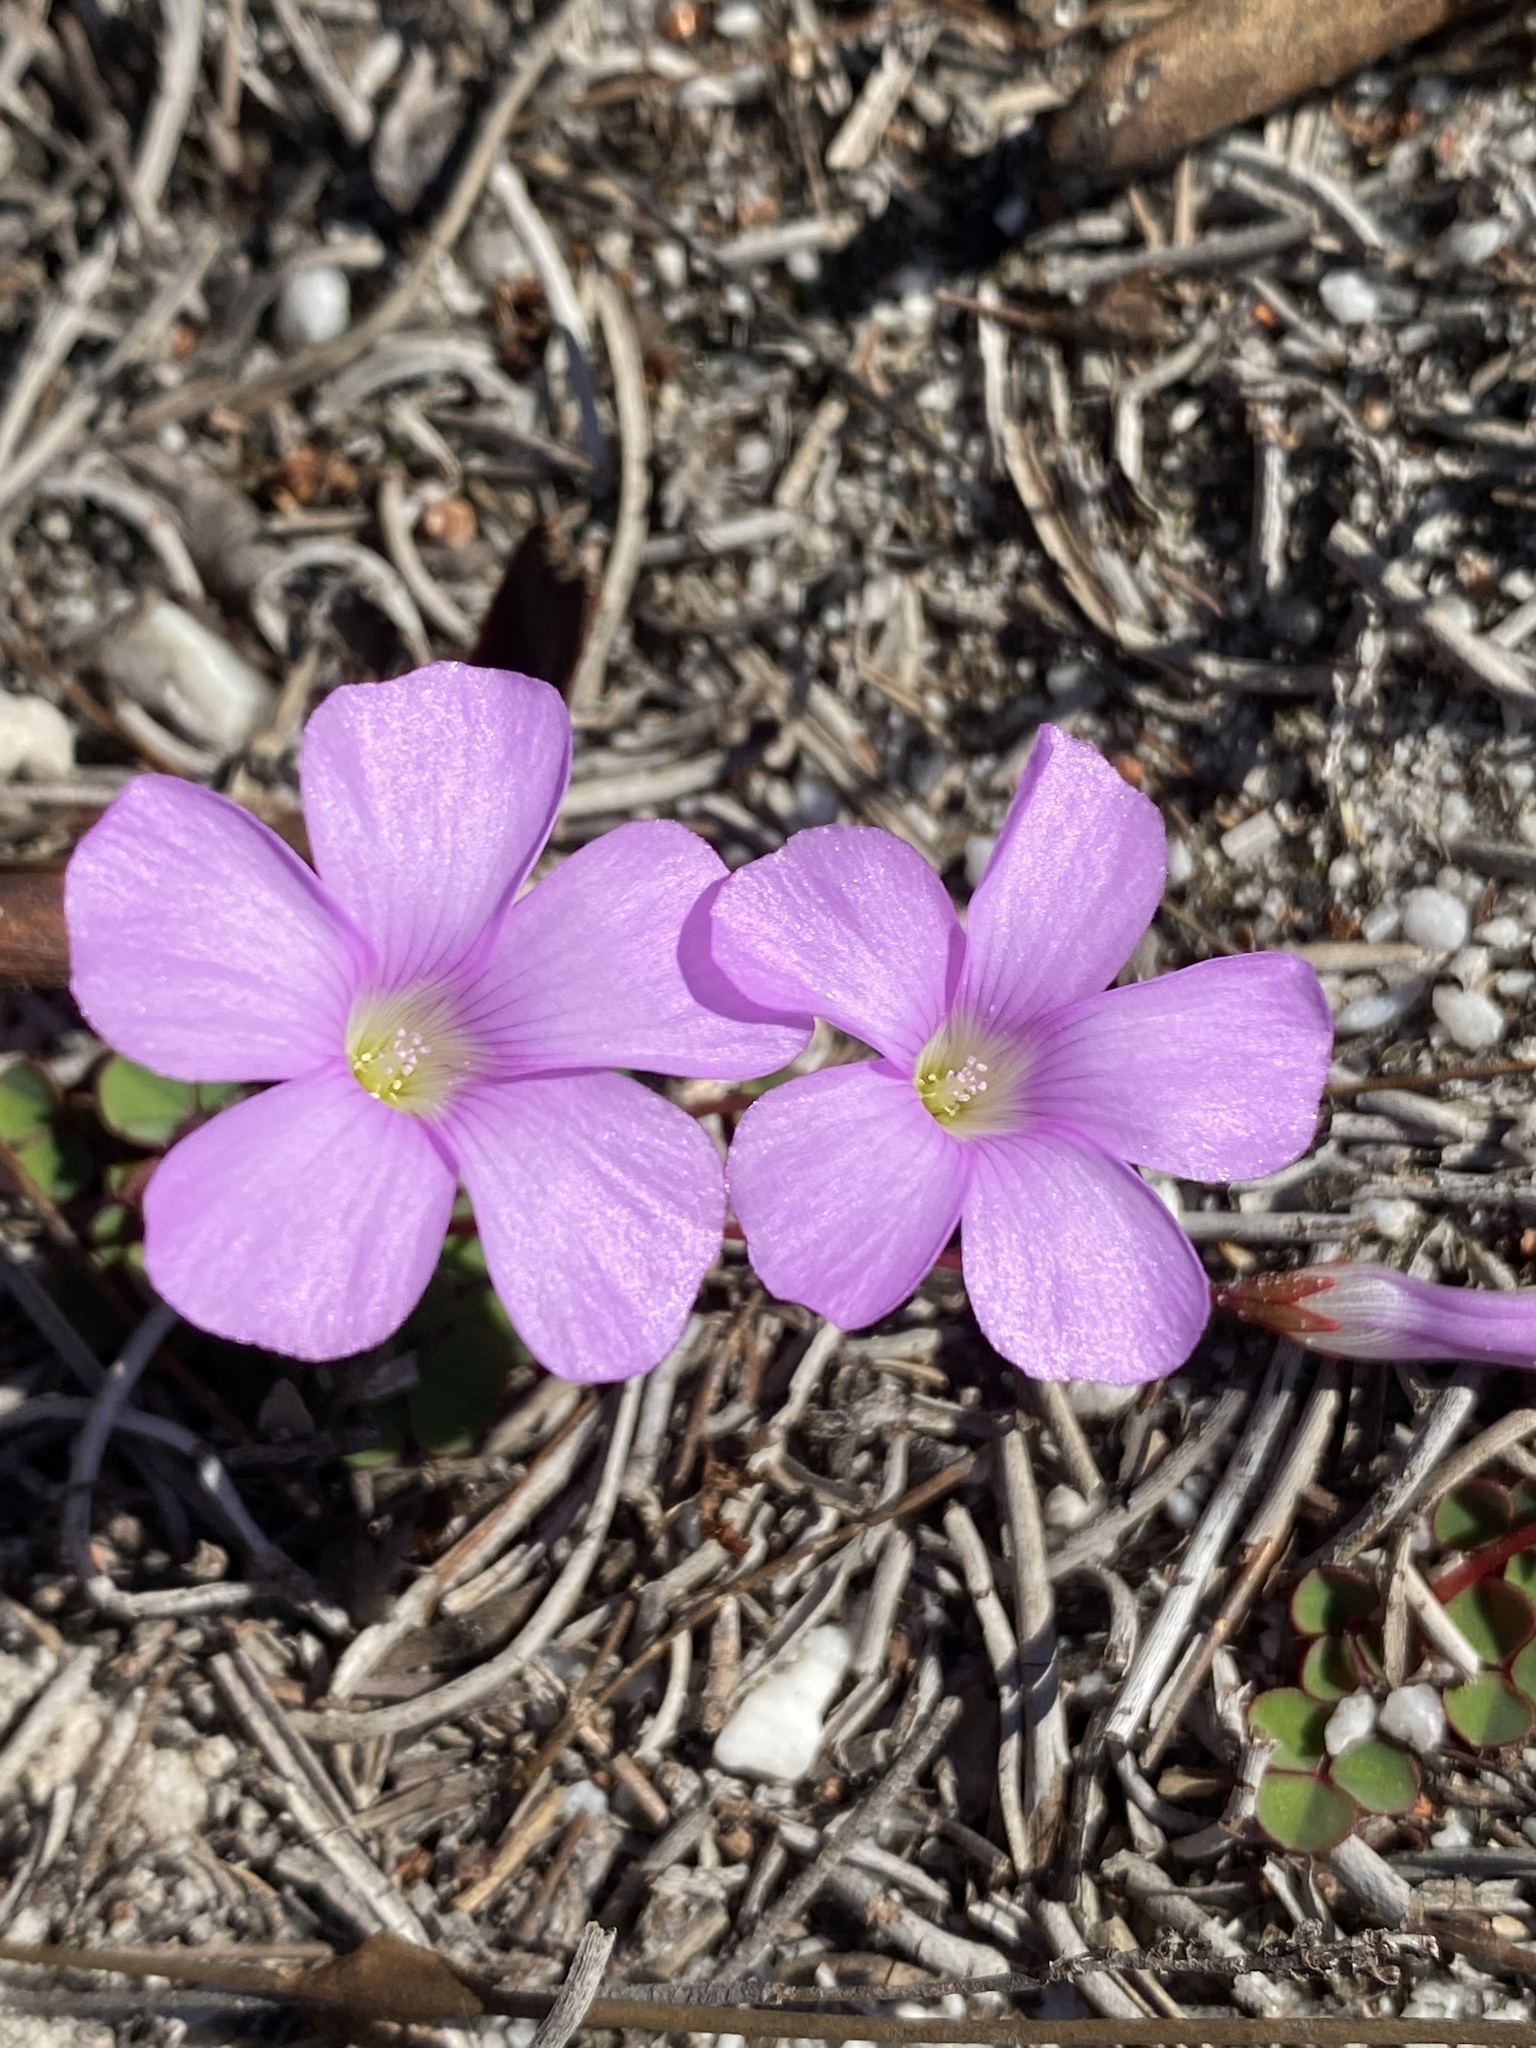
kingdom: Plantae
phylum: Tracheophyta
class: Magnoliopsida
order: Oxalidales
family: Oxalidaceae
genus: Oxalis
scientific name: Oxalis commutata
